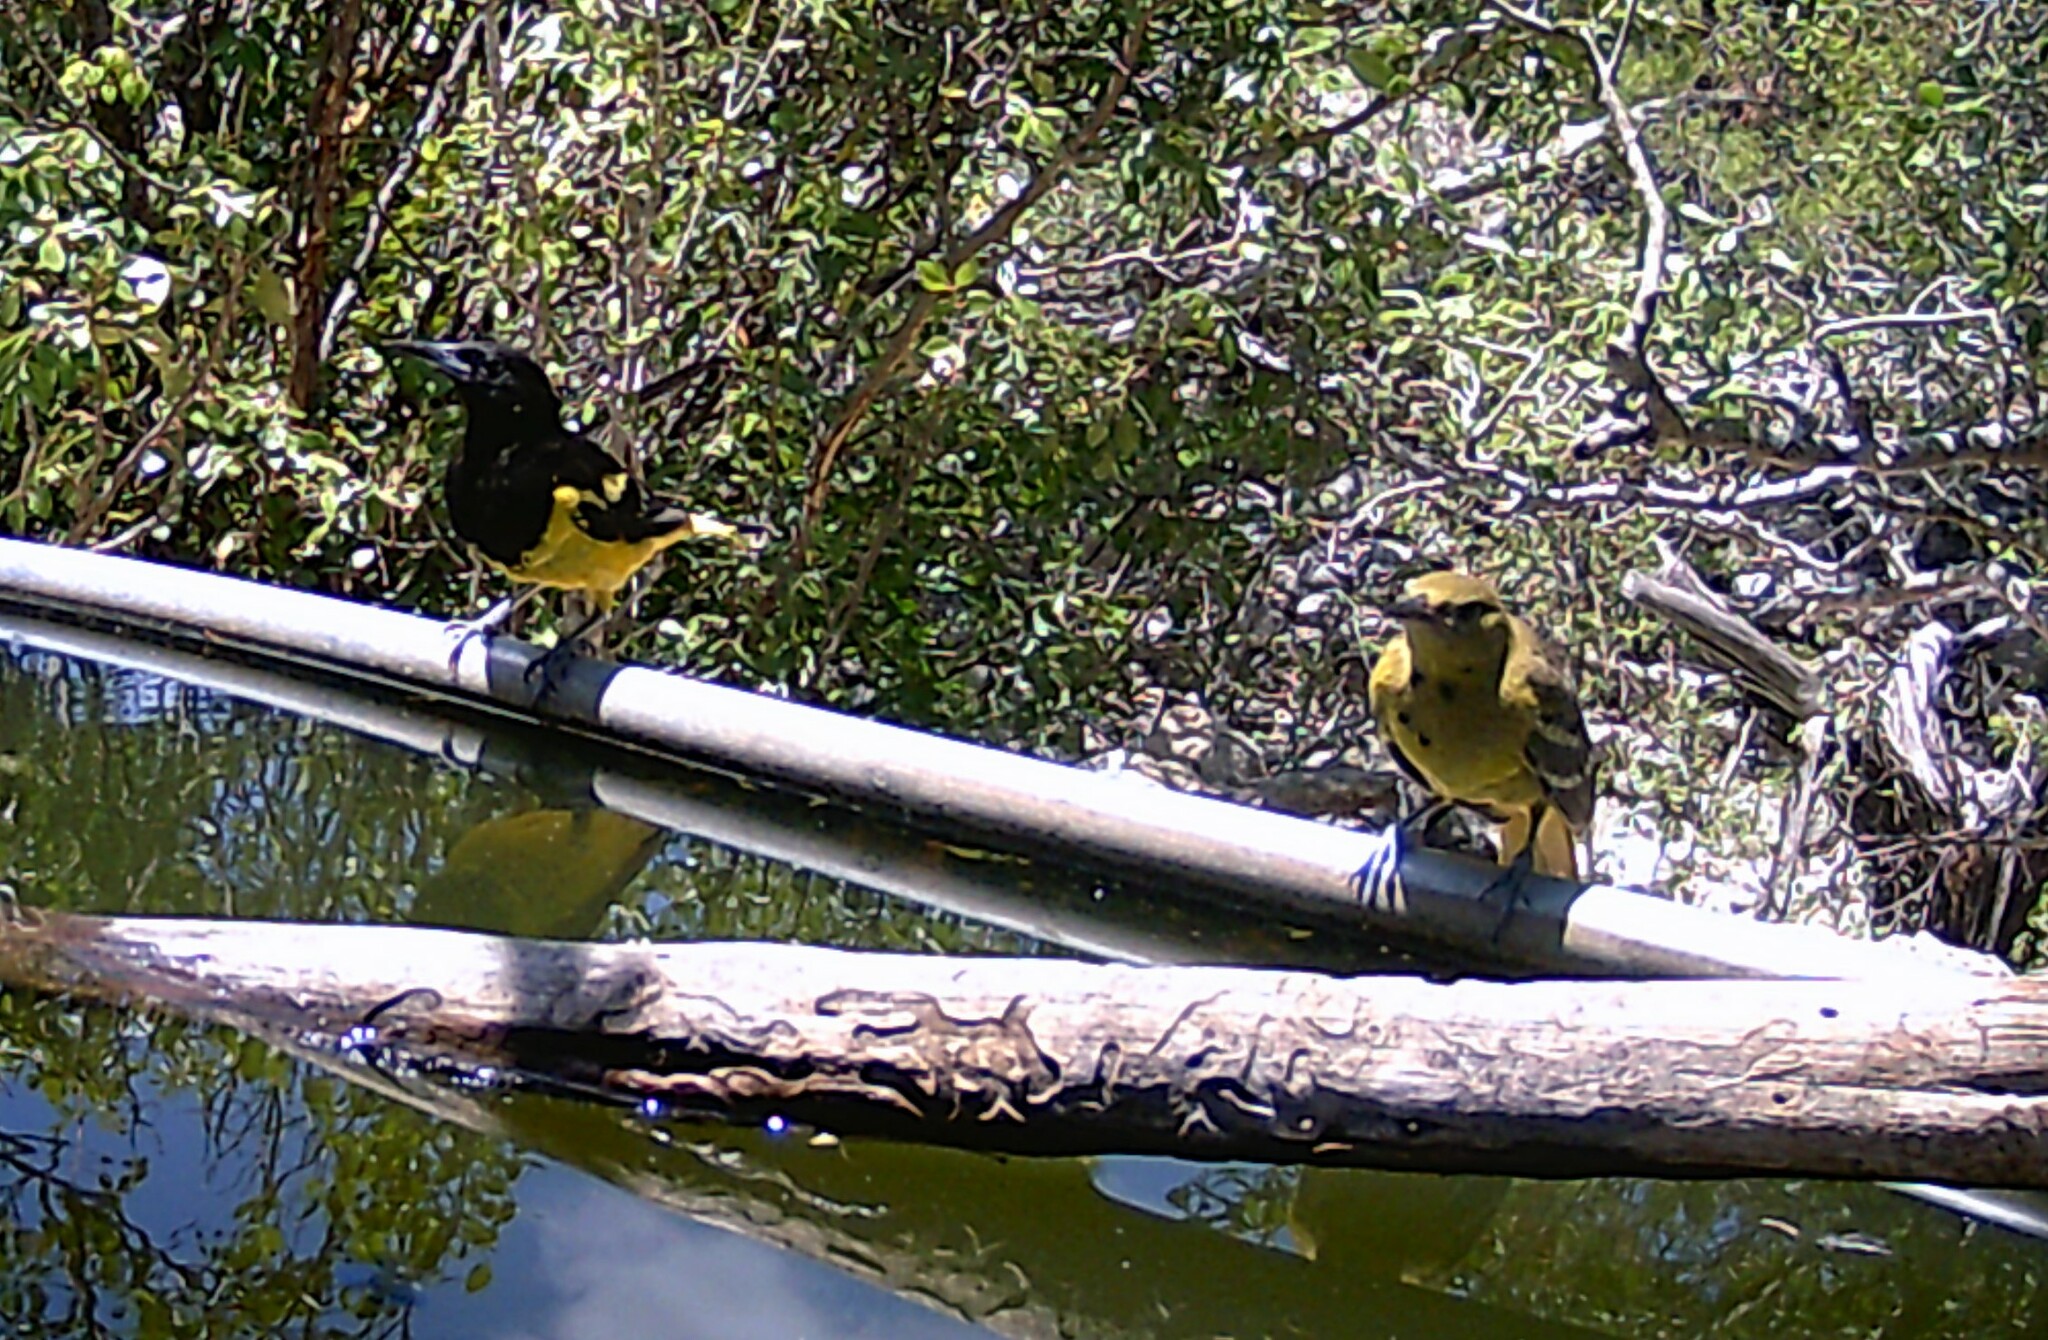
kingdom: Animalia
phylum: Chordata
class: Aves
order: Passeriformes
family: Icteridae
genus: Icterus
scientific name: Icterus parisorum
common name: Scott's oriole
